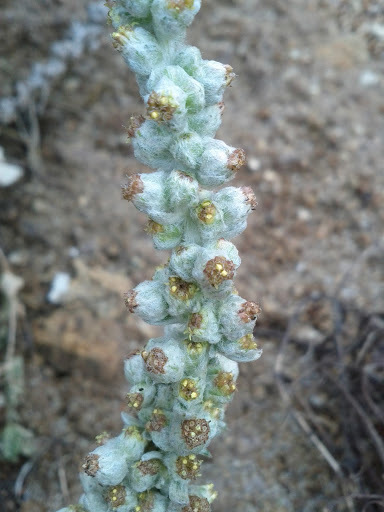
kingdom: Plantae
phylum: Tracheophyta
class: Magnoliopsida
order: Asterales
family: Asteraceae
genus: Artemisia
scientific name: Artemisia pycnocephala
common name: Coastal sagewort
